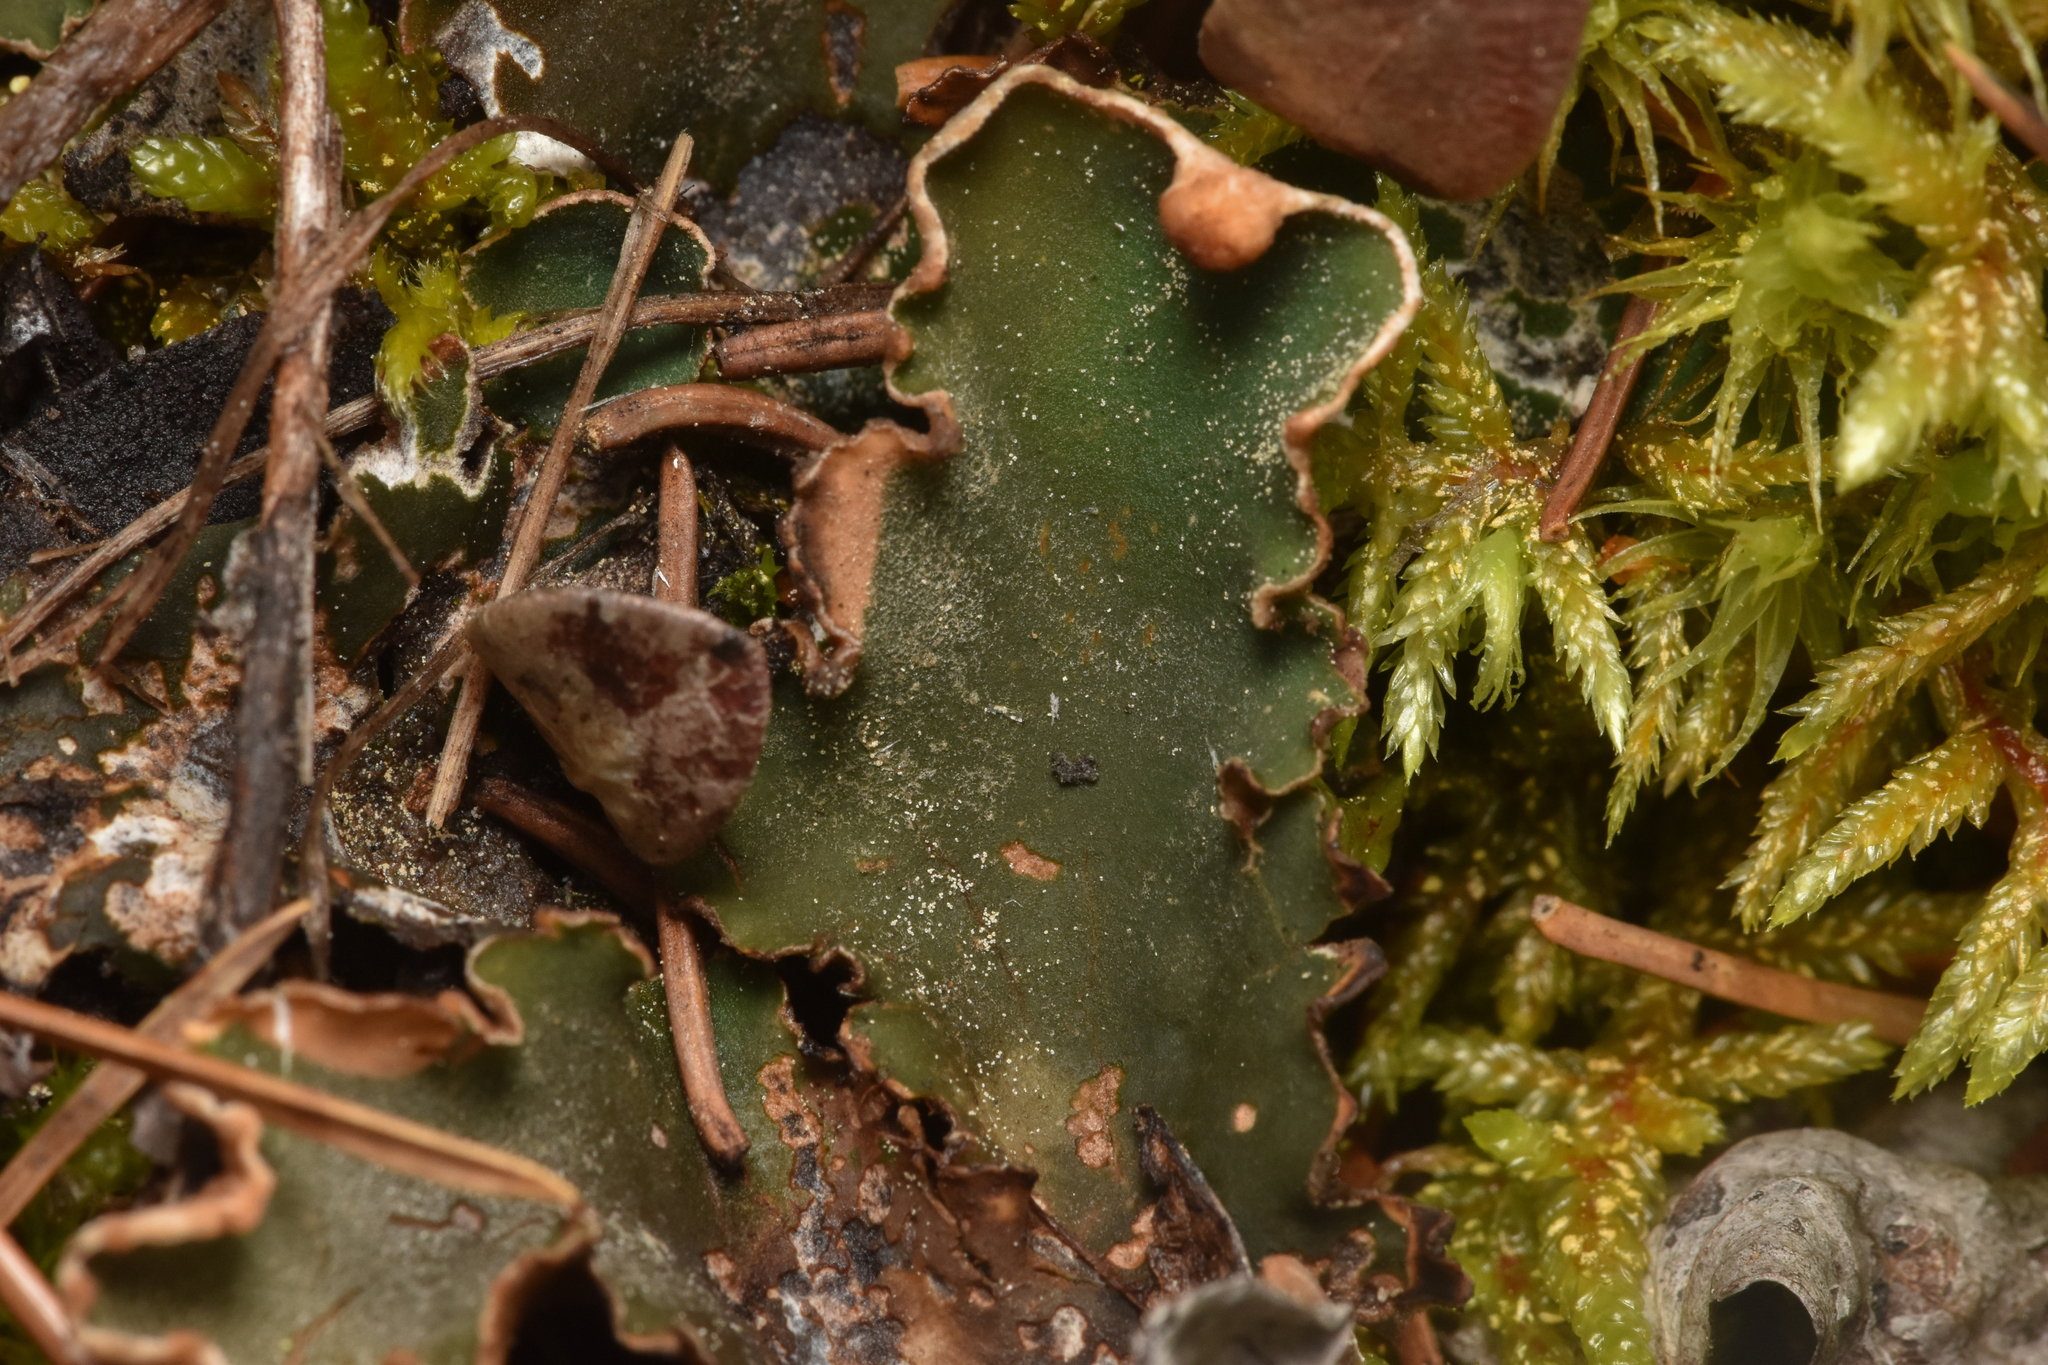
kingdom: Fungi
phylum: Ascomycota
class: Lecanoromycetes
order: Peltigerales
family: Peltigeraceae
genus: Peltigera
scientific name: Peltigera malacea
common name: Matt felt lichen
